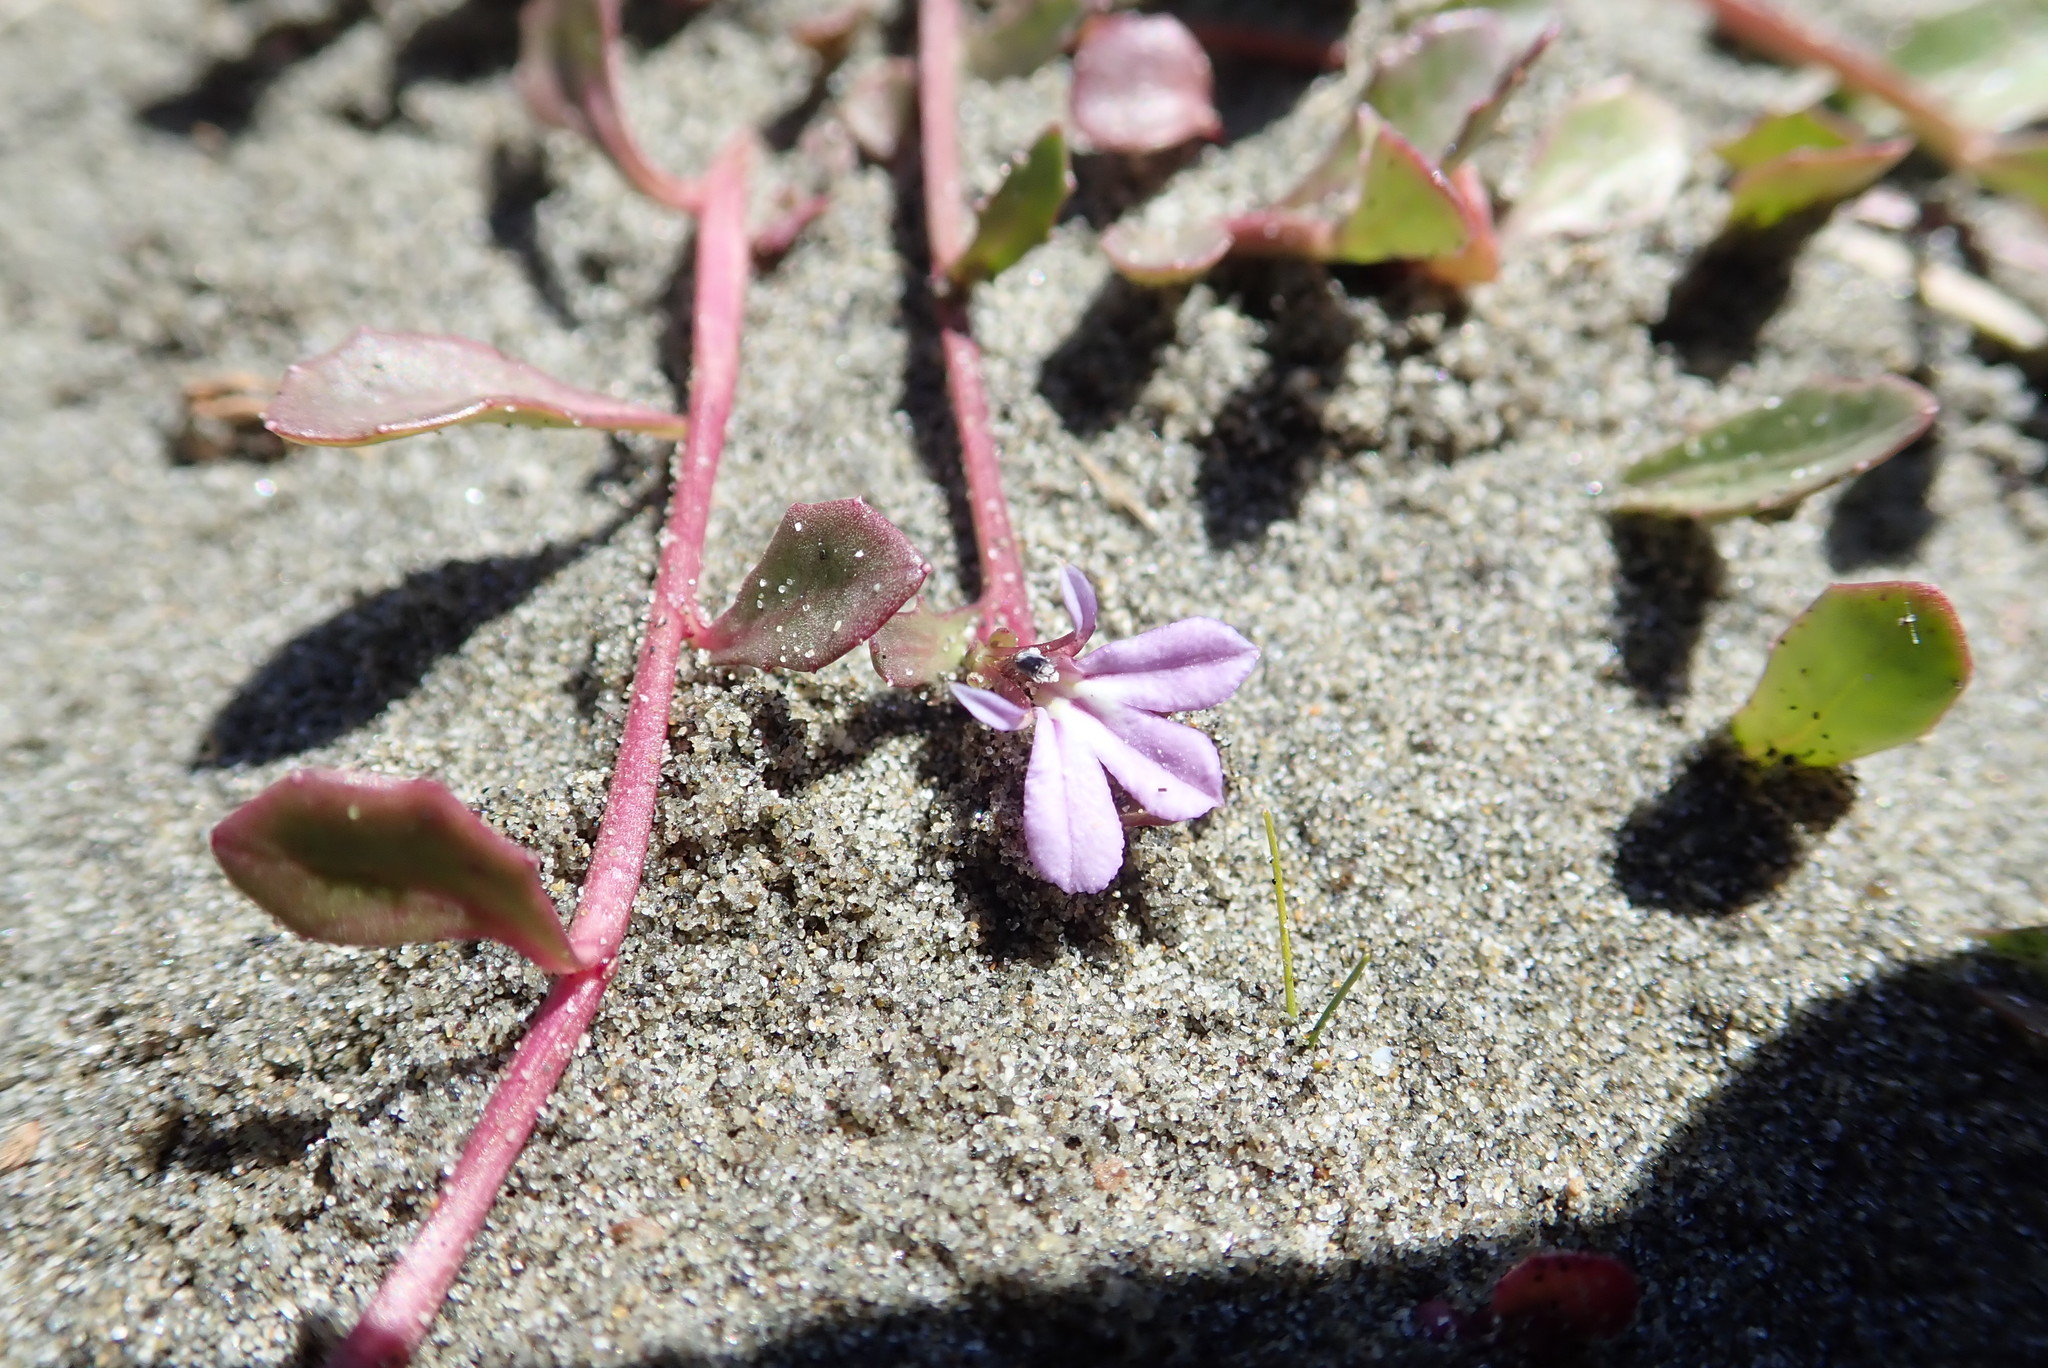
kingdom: Plantae
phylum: Tracheophyta
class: Magnoliopsida
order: Asterales
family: Campanulaceae
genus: Lobelia
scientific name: Lobelia anceps
